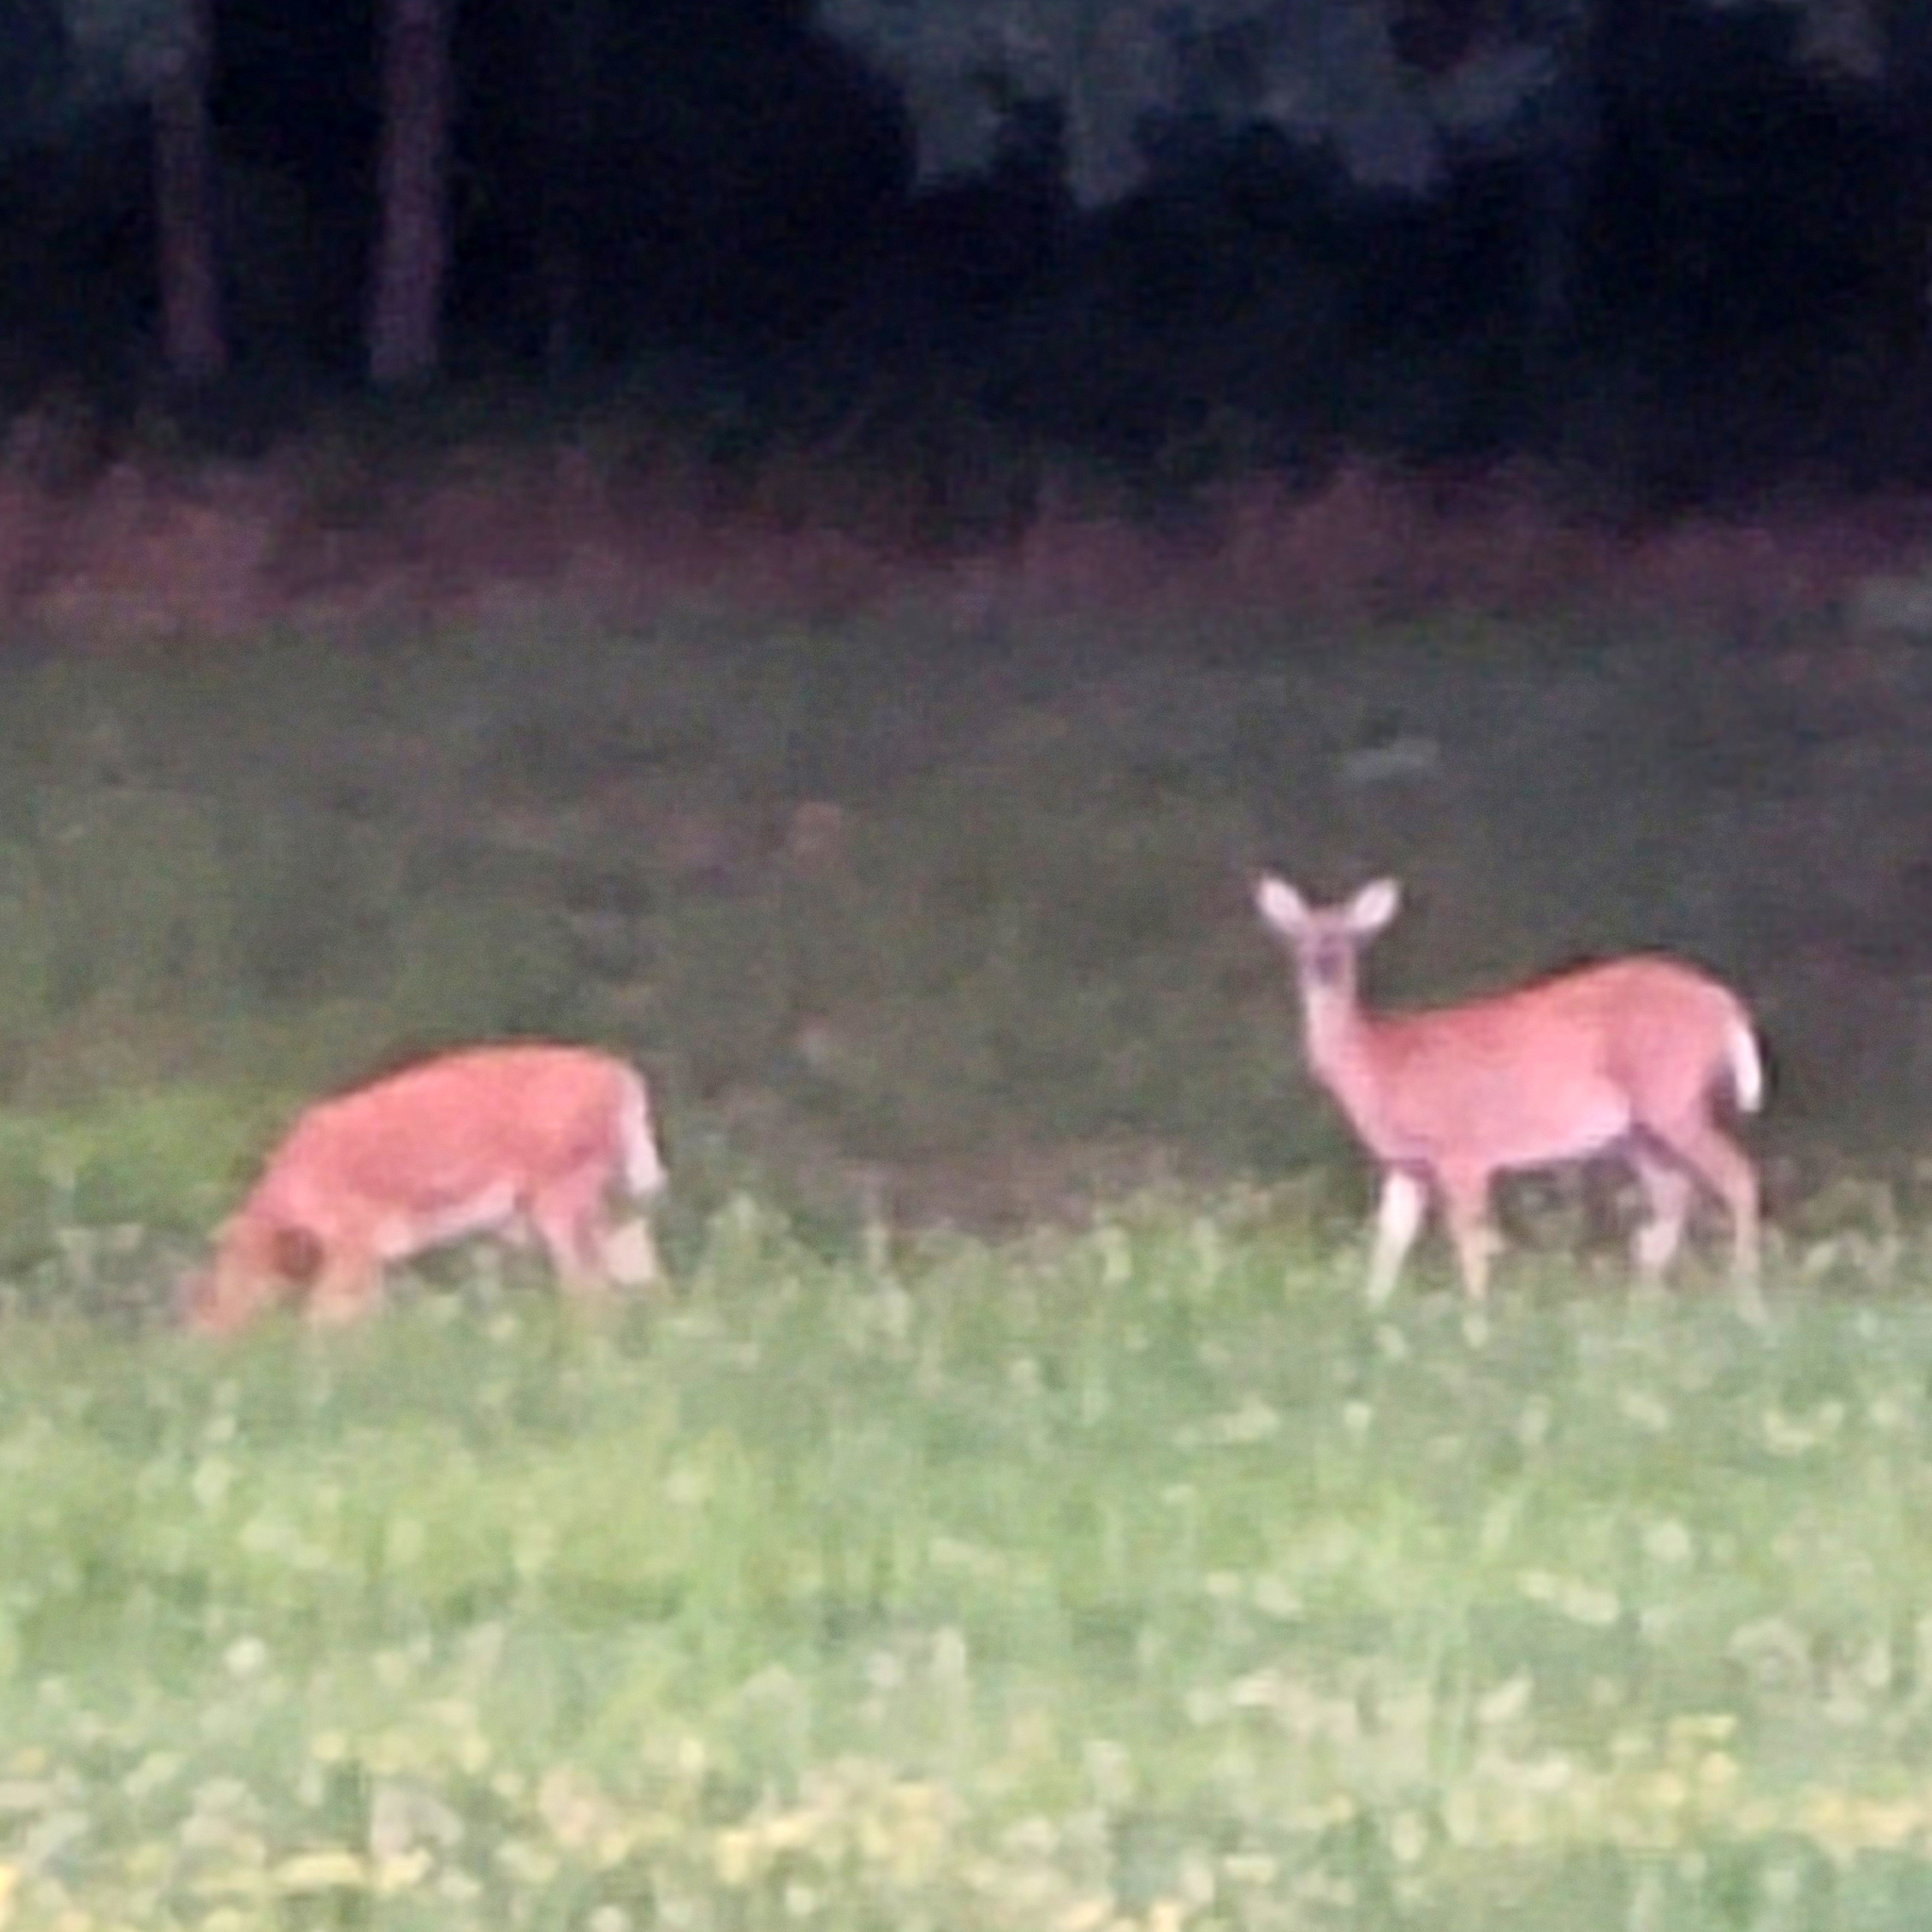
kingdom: Animalia
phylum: Chordata
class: Mammalia
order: Artiodactyla
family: Cervidae
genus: Odocoileus
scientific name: Odocoileus virginianus
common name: White-tailed deer
